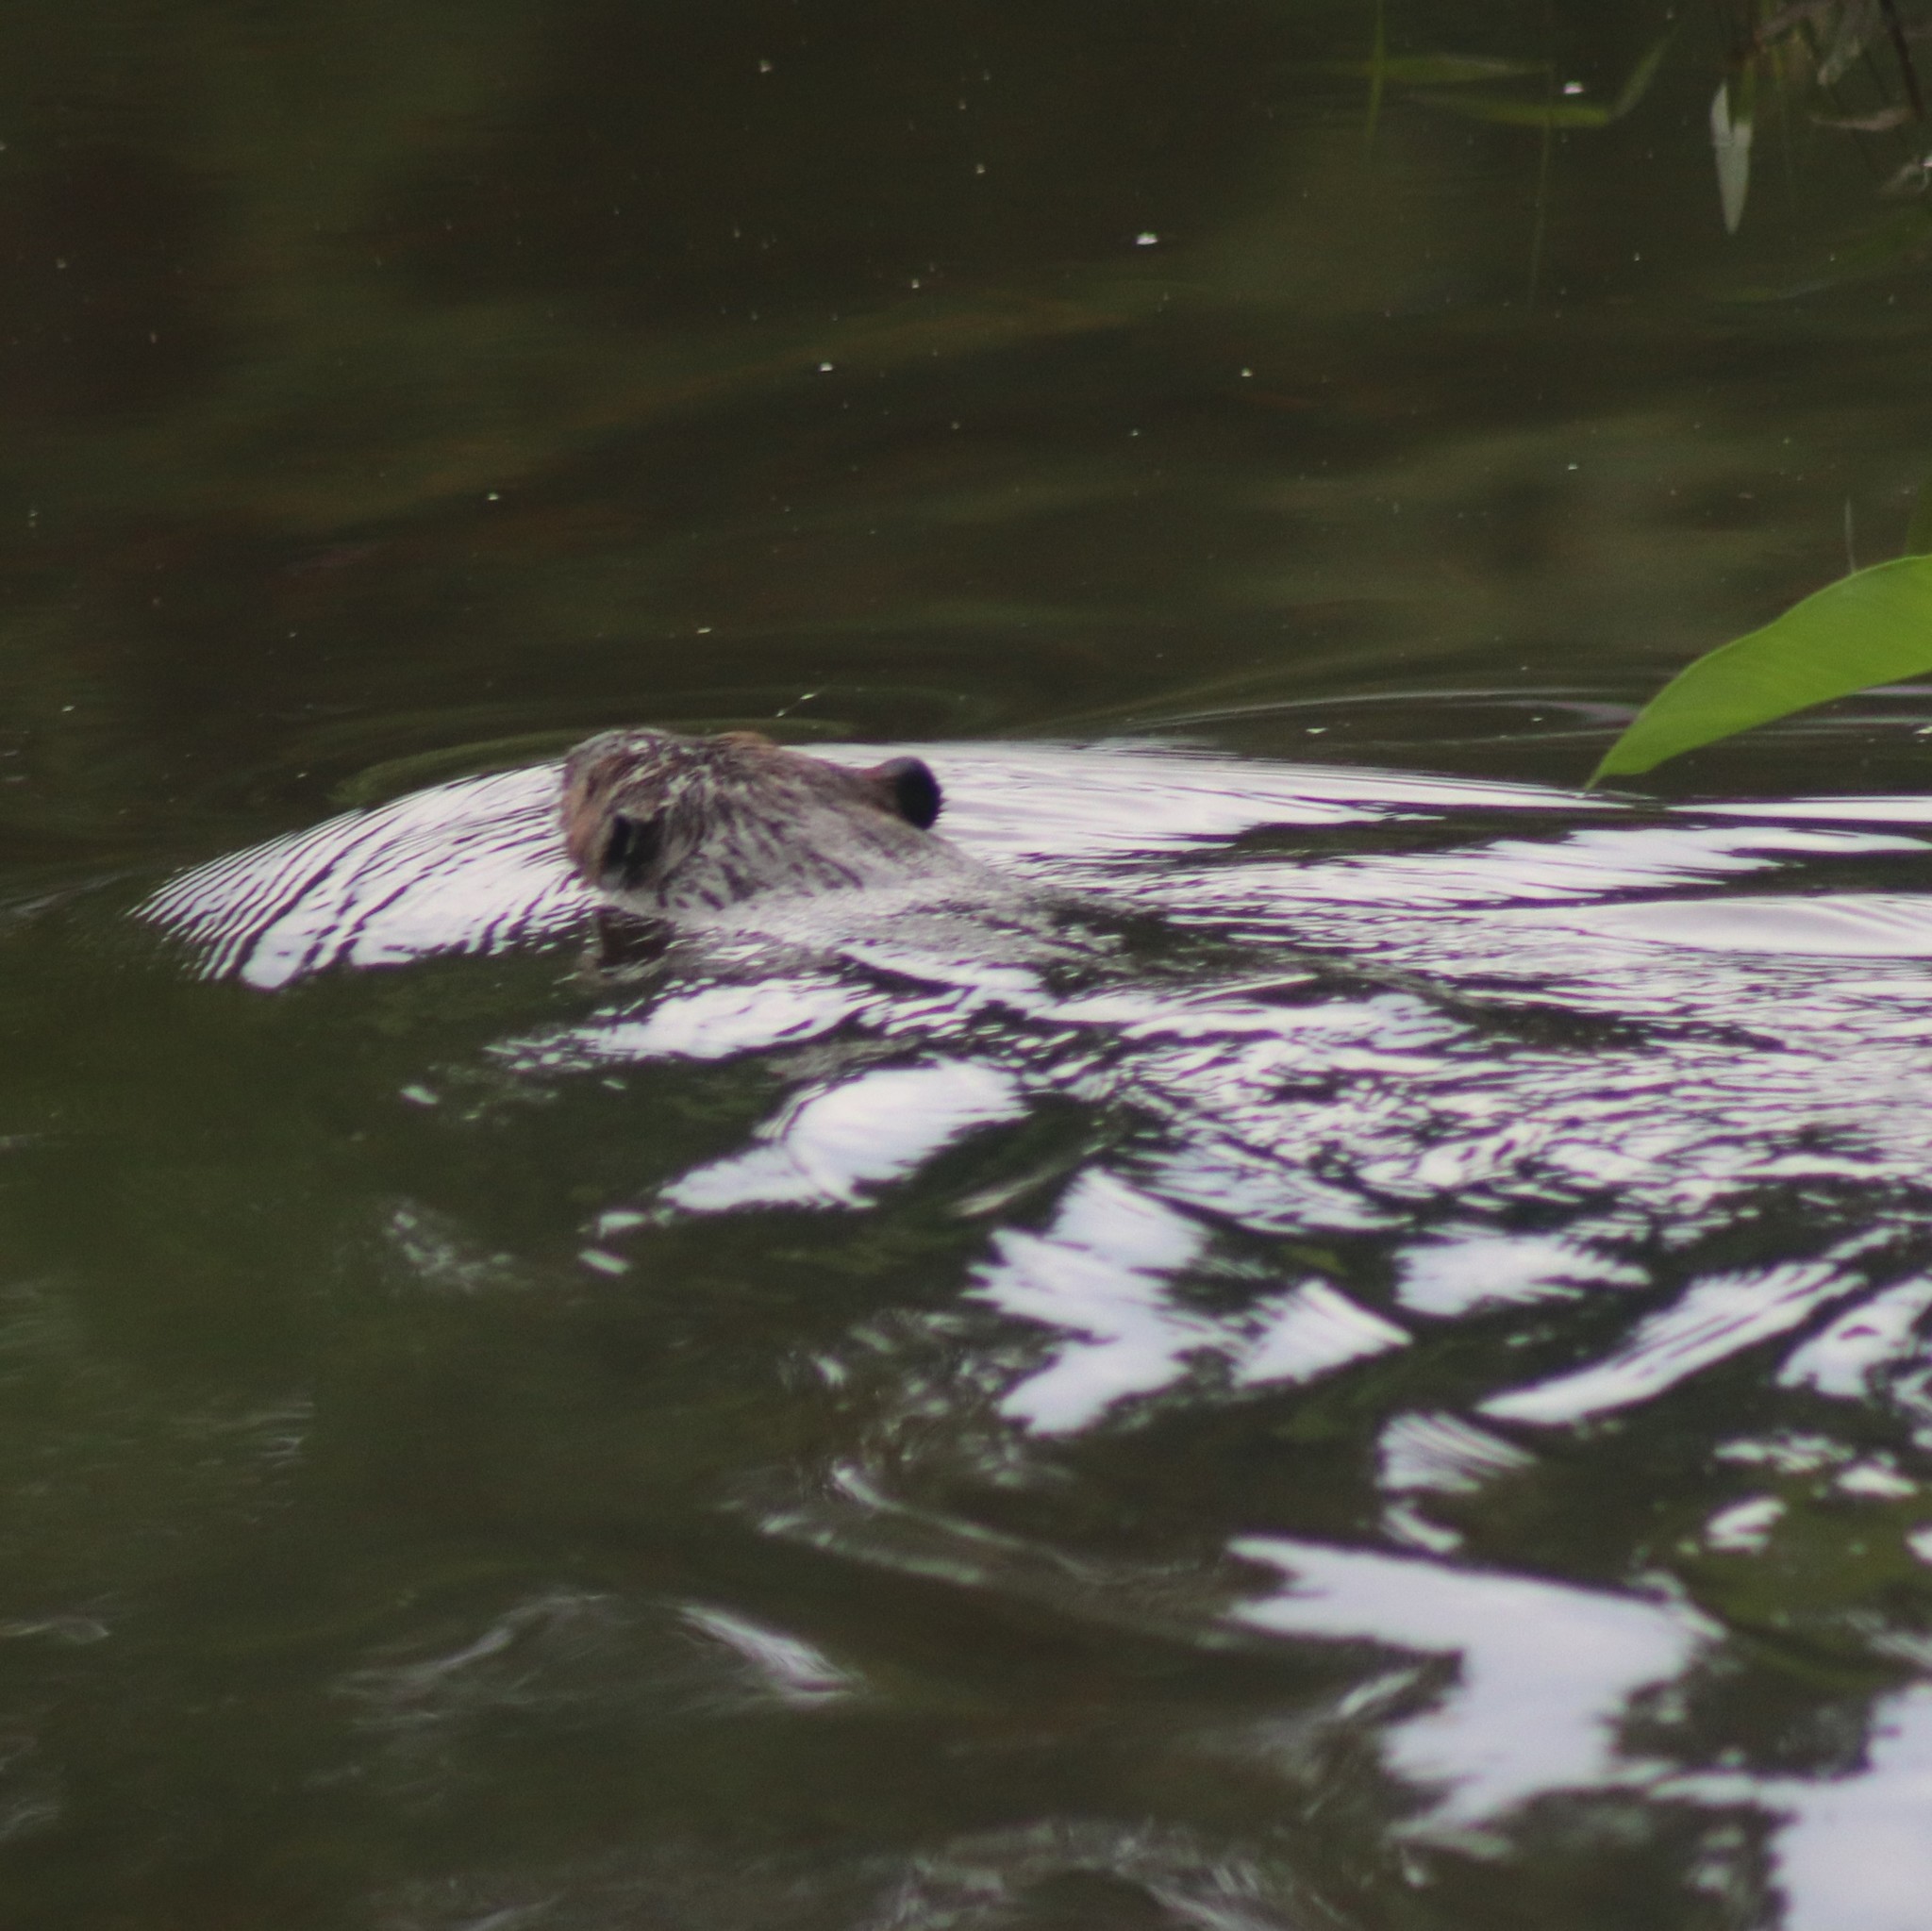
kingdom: Animalia
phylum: Chordata
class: Mammalia
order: Rodentia
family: Castoridae
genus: Castor
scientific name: Castor canadensis
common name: American beaver
